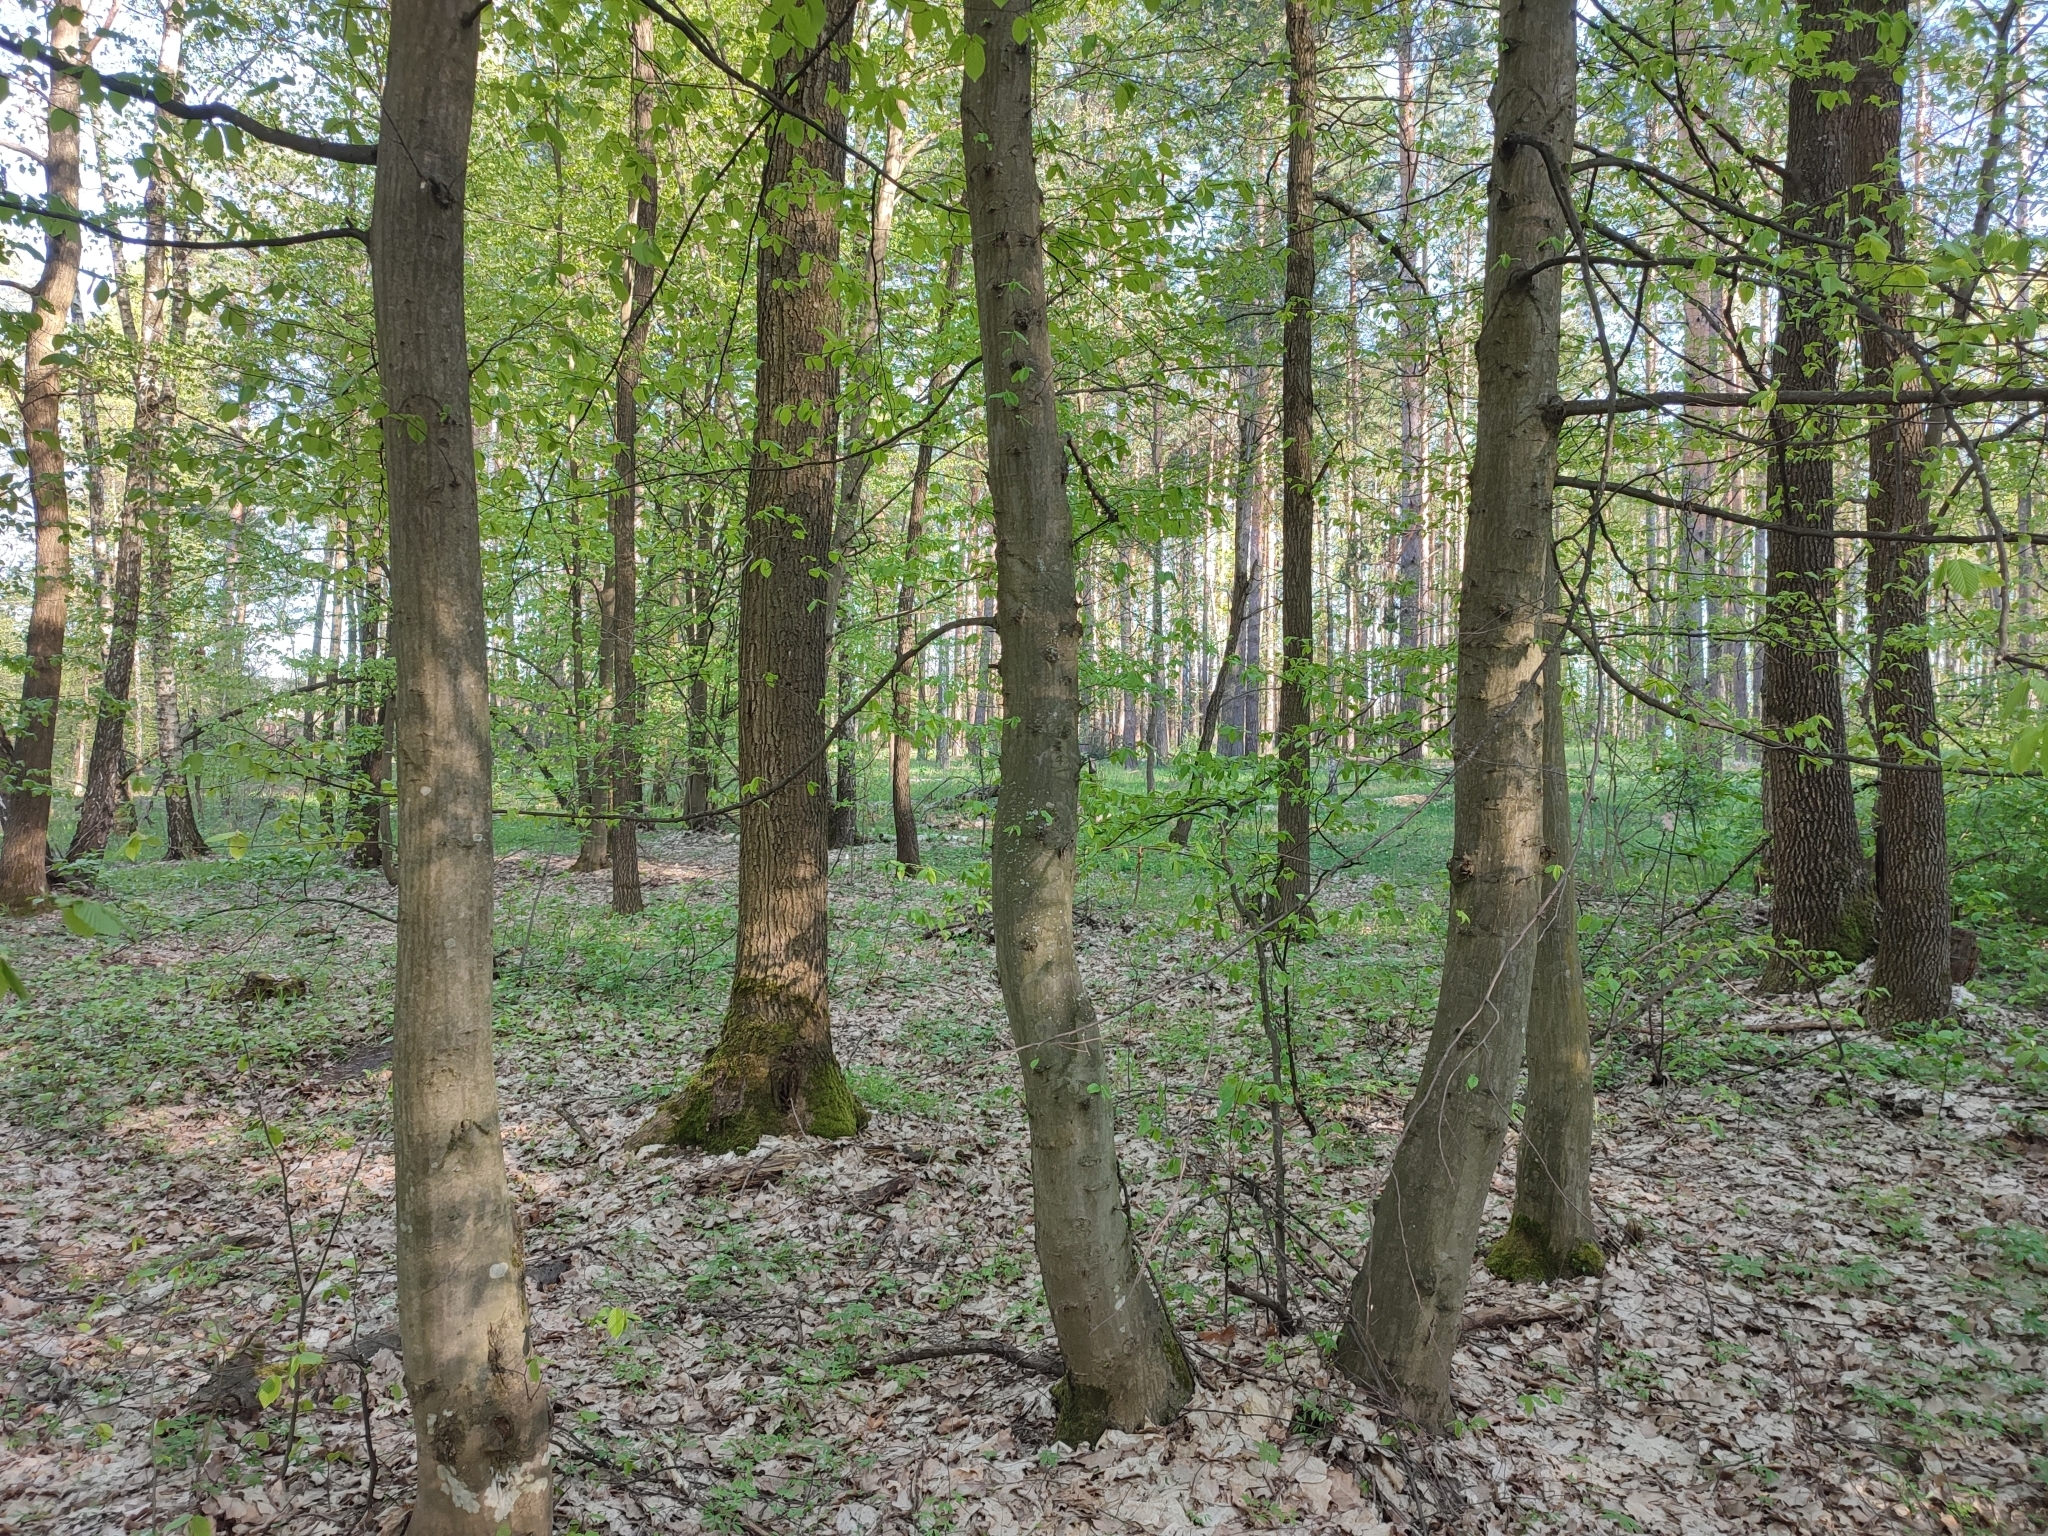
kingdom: Plantae
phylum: Tracheophyta
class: Magnoliopsida
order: Fagales
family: Betulaceae
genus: Carpinus
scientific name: Carpinus betulus
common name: Hornbeam
